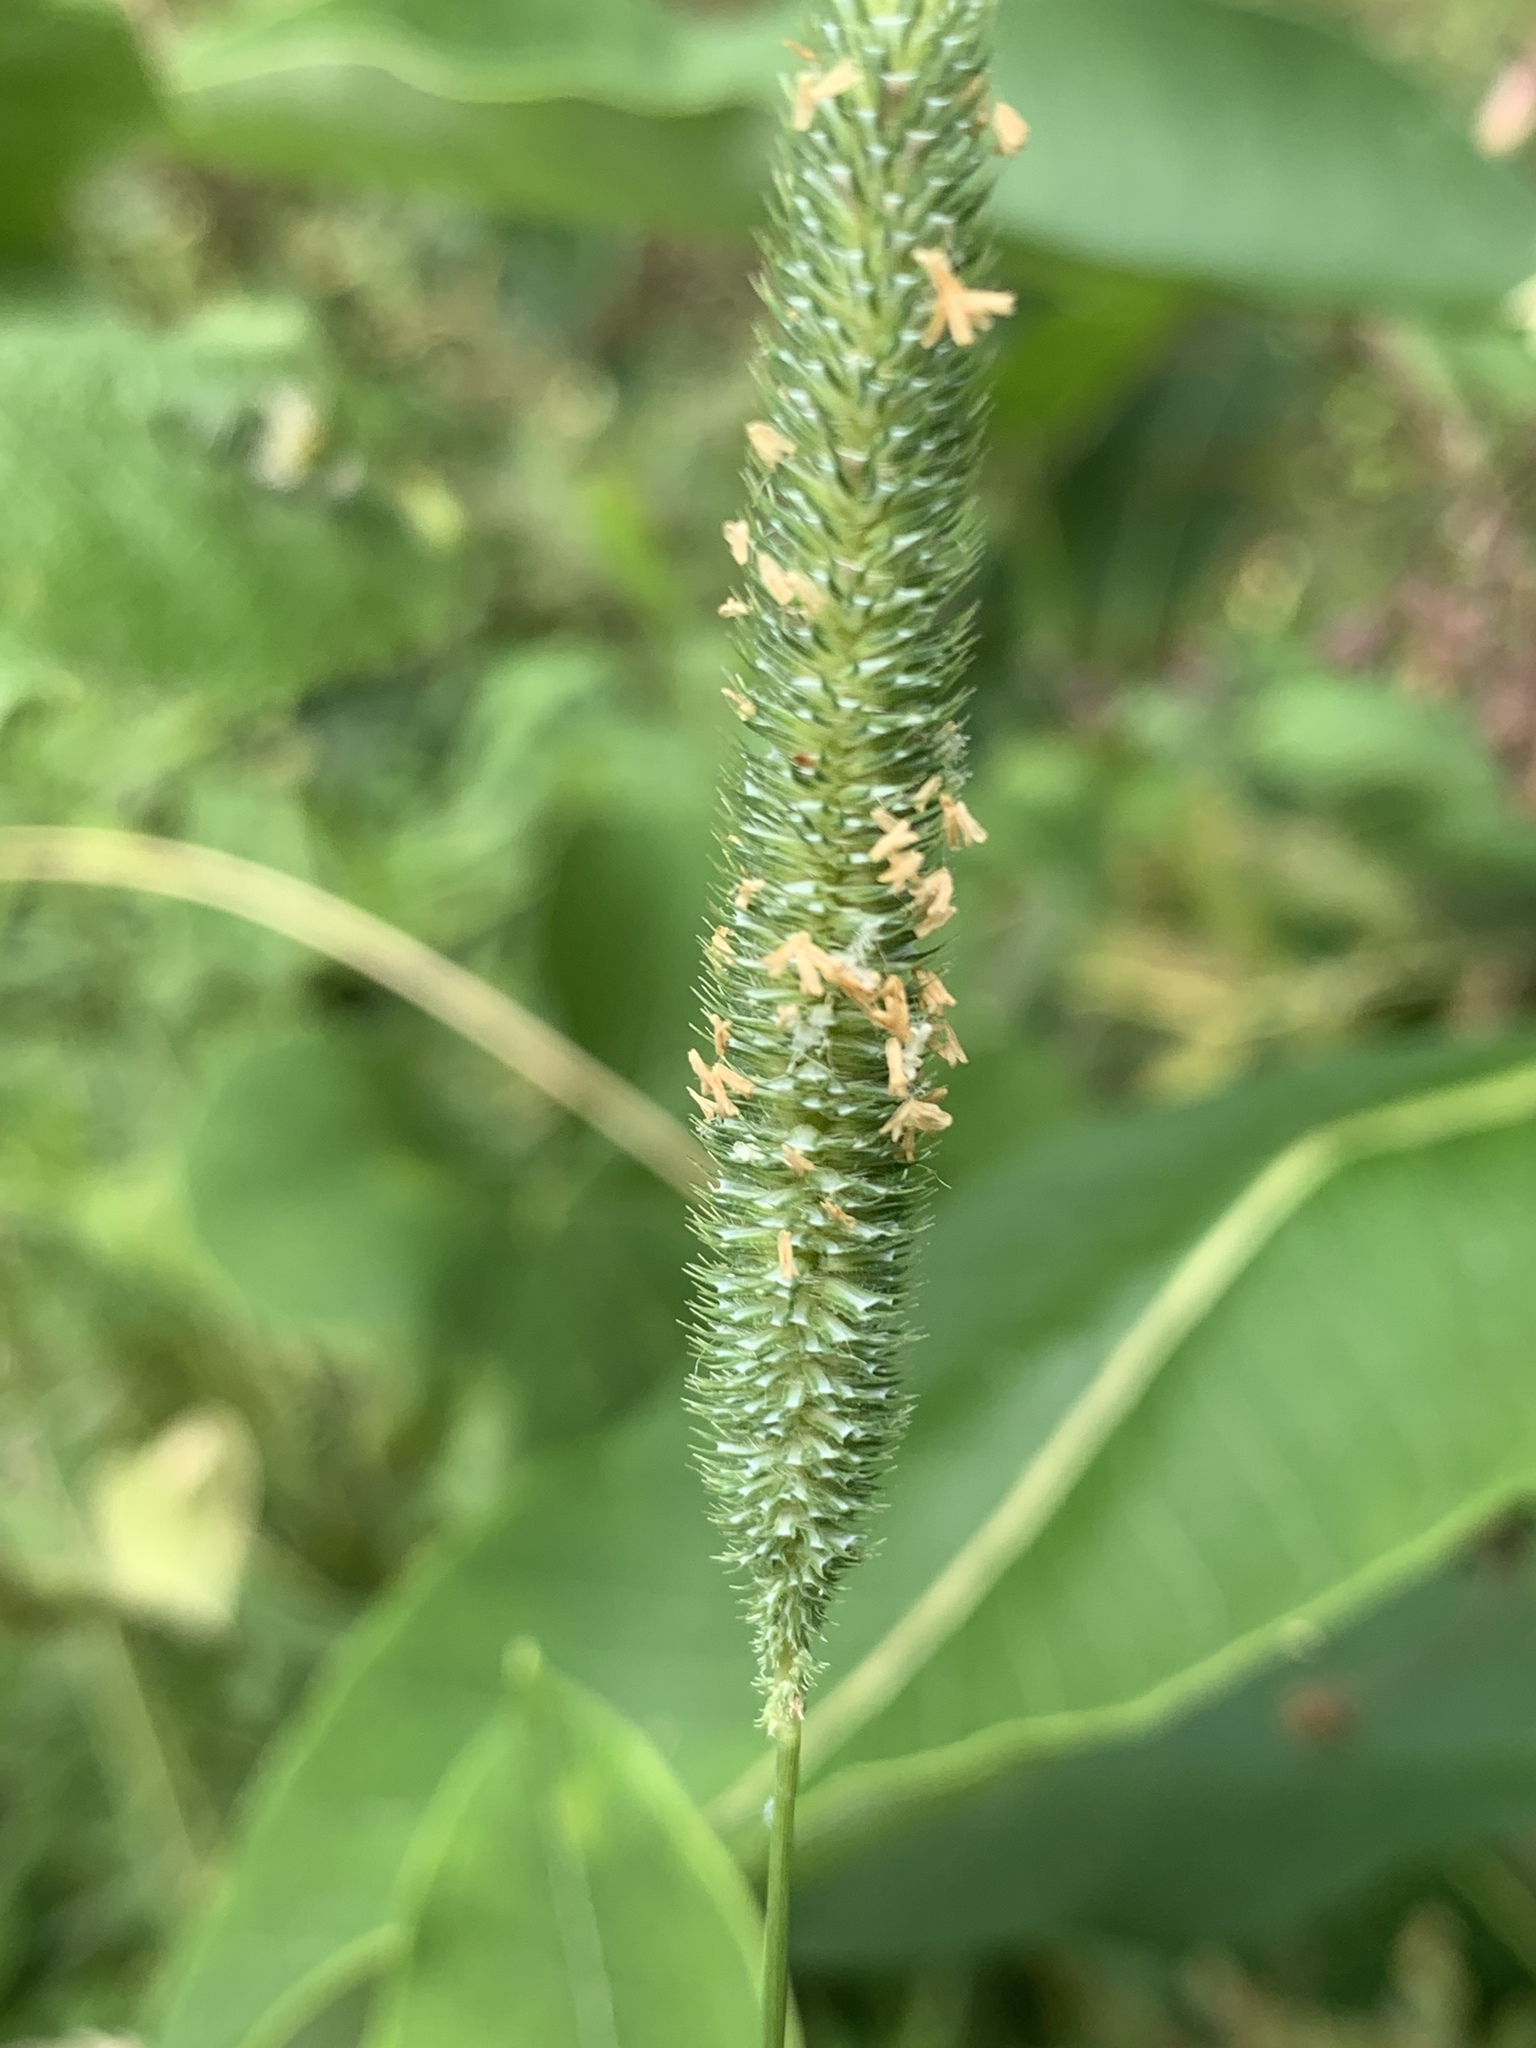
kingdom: Plantae
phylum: Tracheophyta
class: Liliopsida
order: Poales
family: Poaceae
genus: Phleum
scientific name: Phleum pratense
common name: Timothy grass
